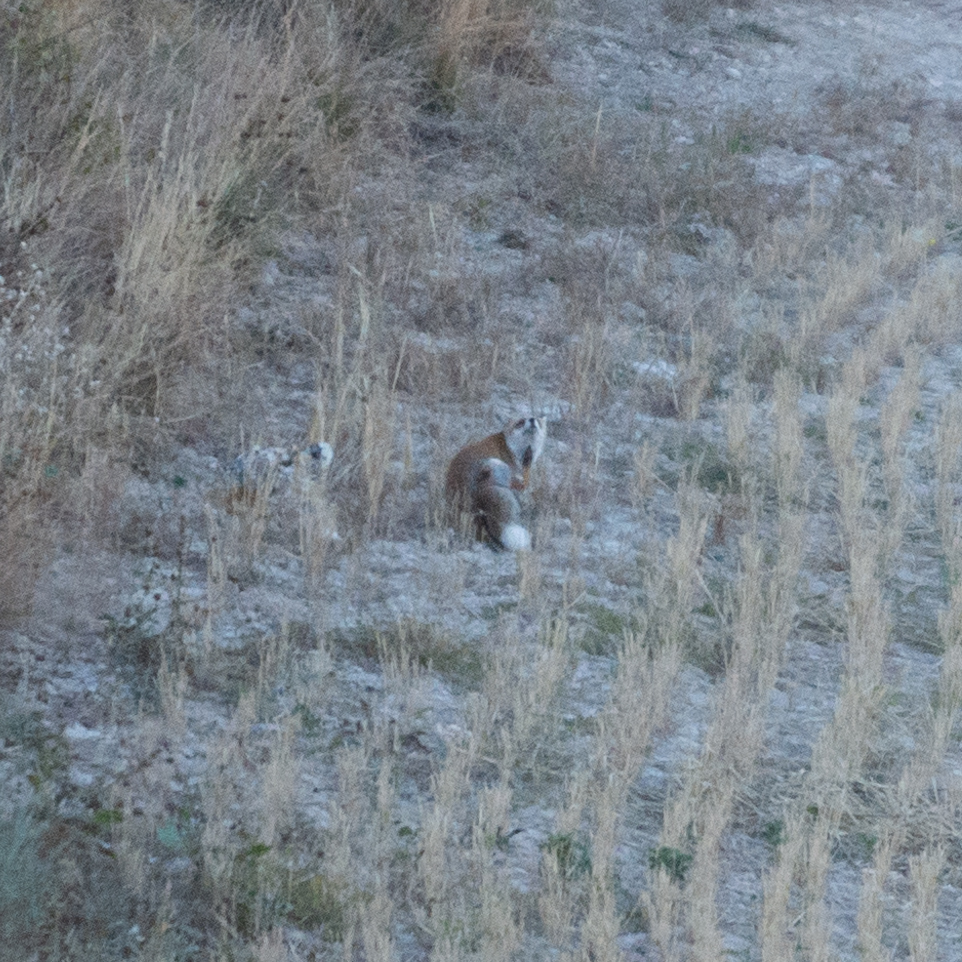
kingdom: Animalia
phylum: Chordata
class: Mammalia
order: Carnivora
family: Canidae
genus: Vulpes
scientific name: Vulpes vulpes
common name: Red fox
